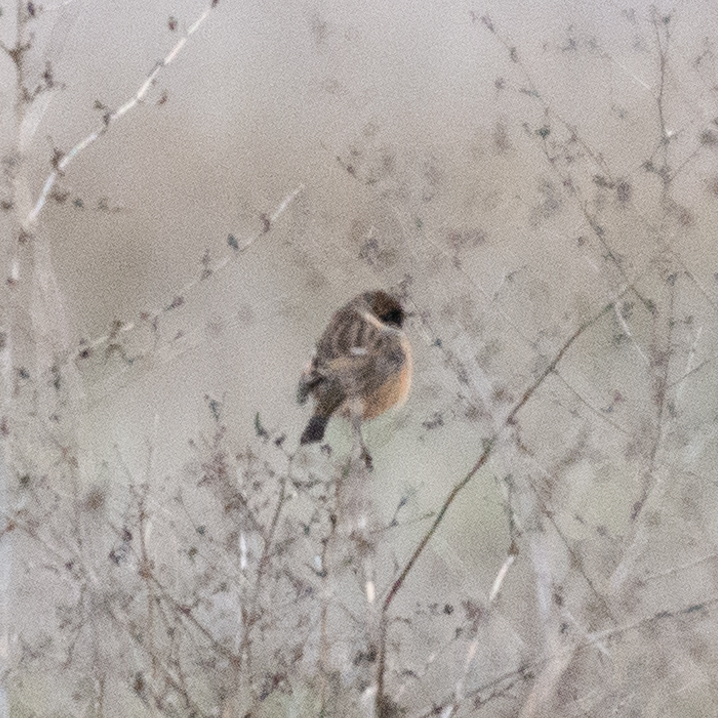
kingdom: Animalia
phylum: Chordata
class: Aves
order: Passeriformes
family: Muscicapidae
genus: Saxicola
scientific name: Saxicola rubicola
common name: European stonechat
